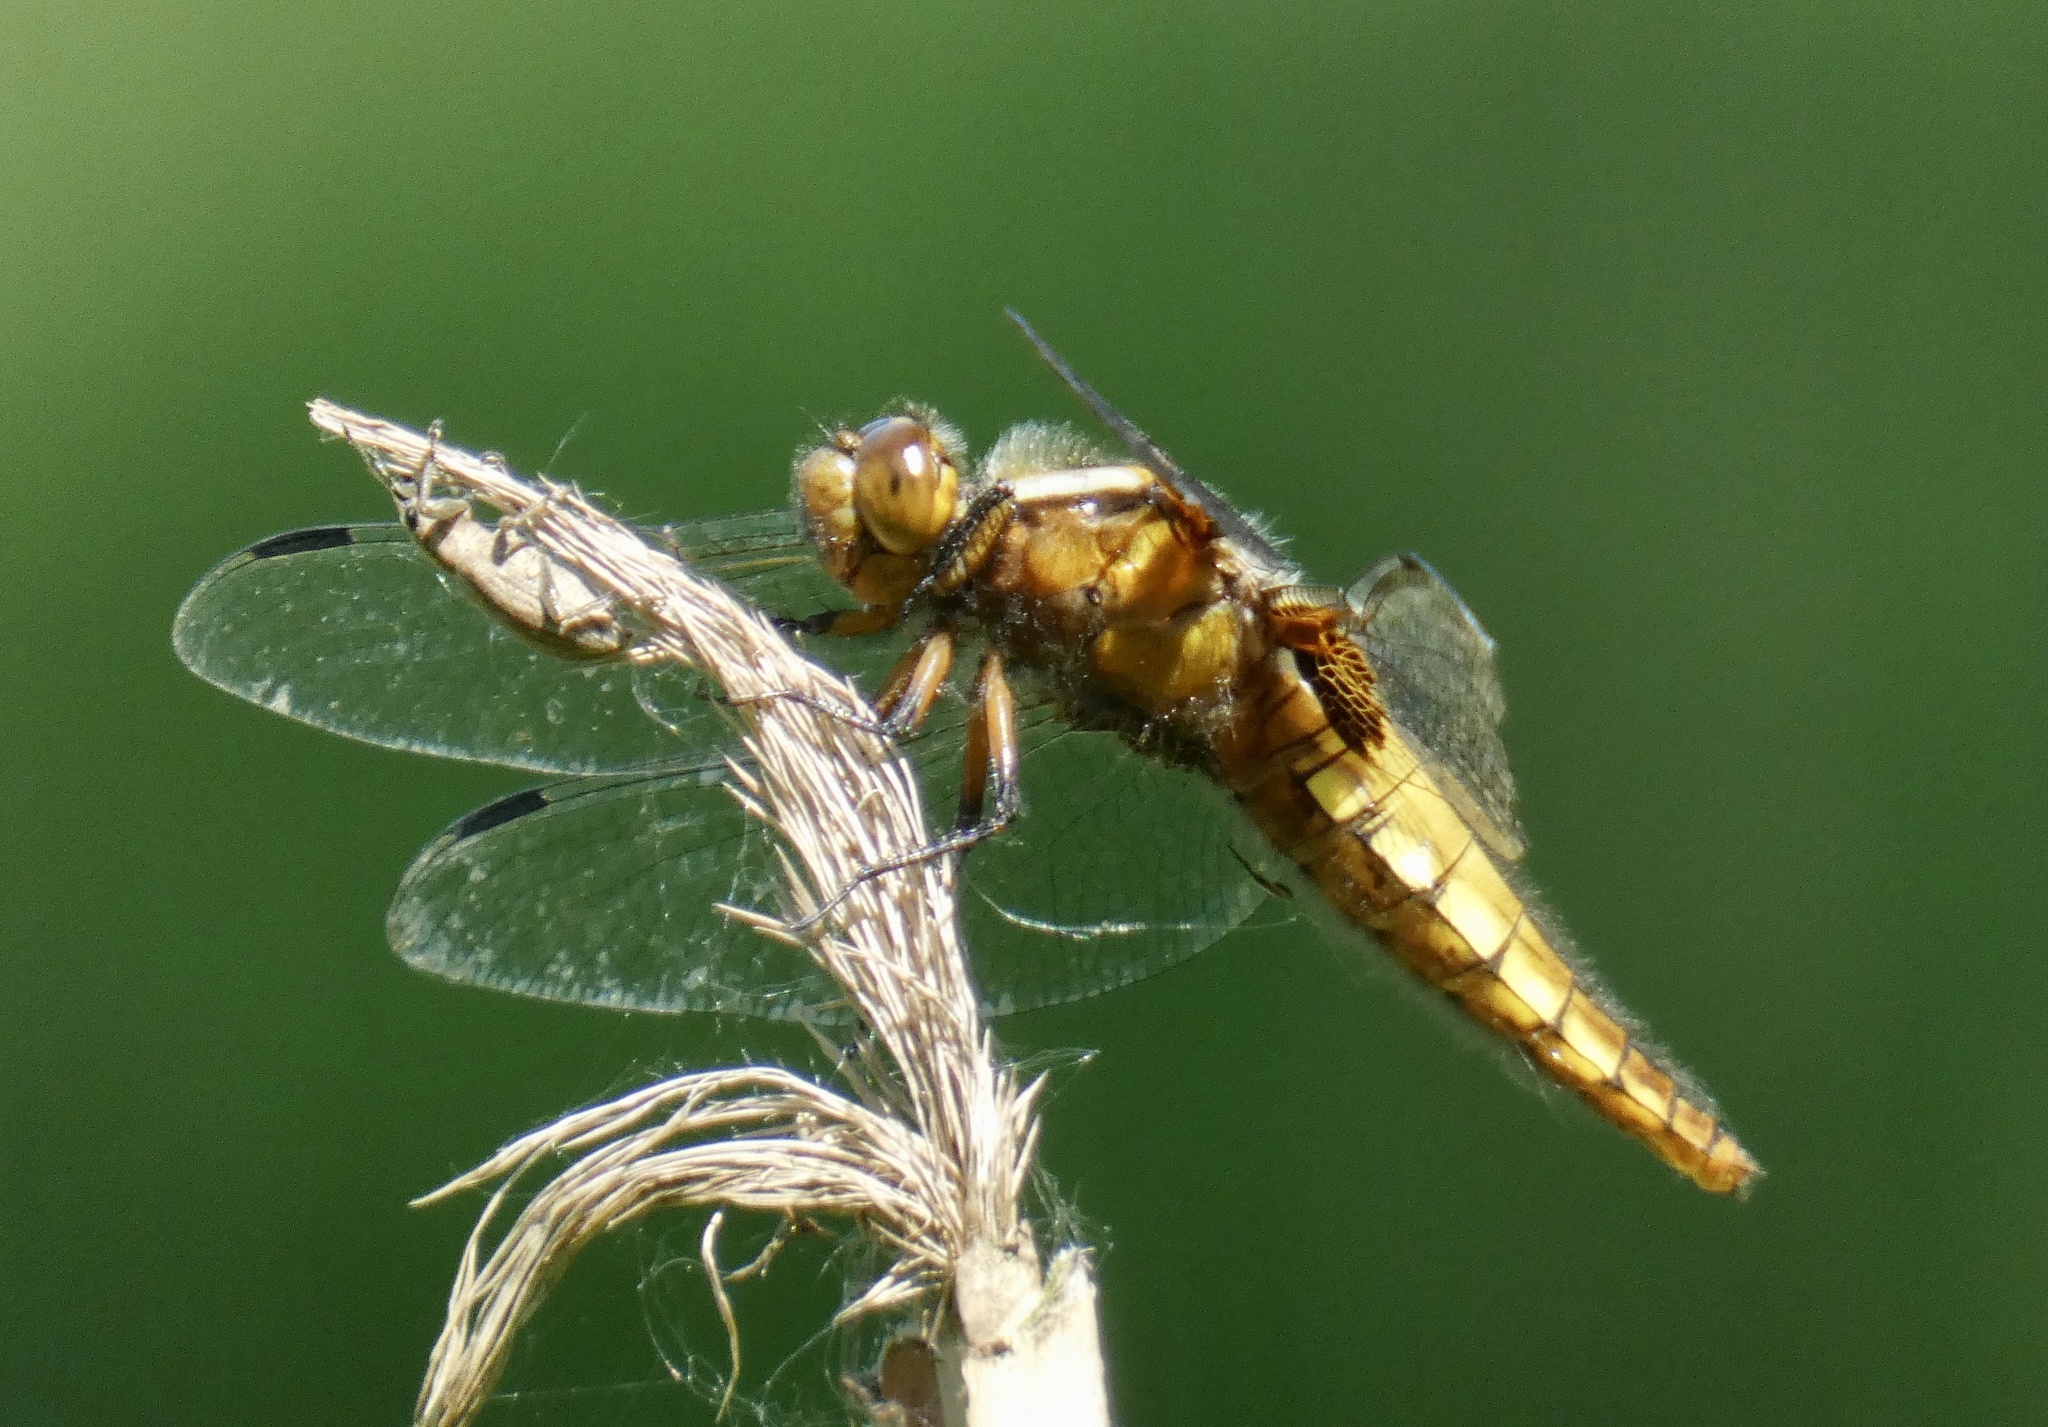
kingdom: Animalia
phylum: Arthropoda
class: Insecta
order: Odonata
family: Libellulidae
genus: Libellula
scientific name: Libellula depressa
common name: Broad-bodied chaser
